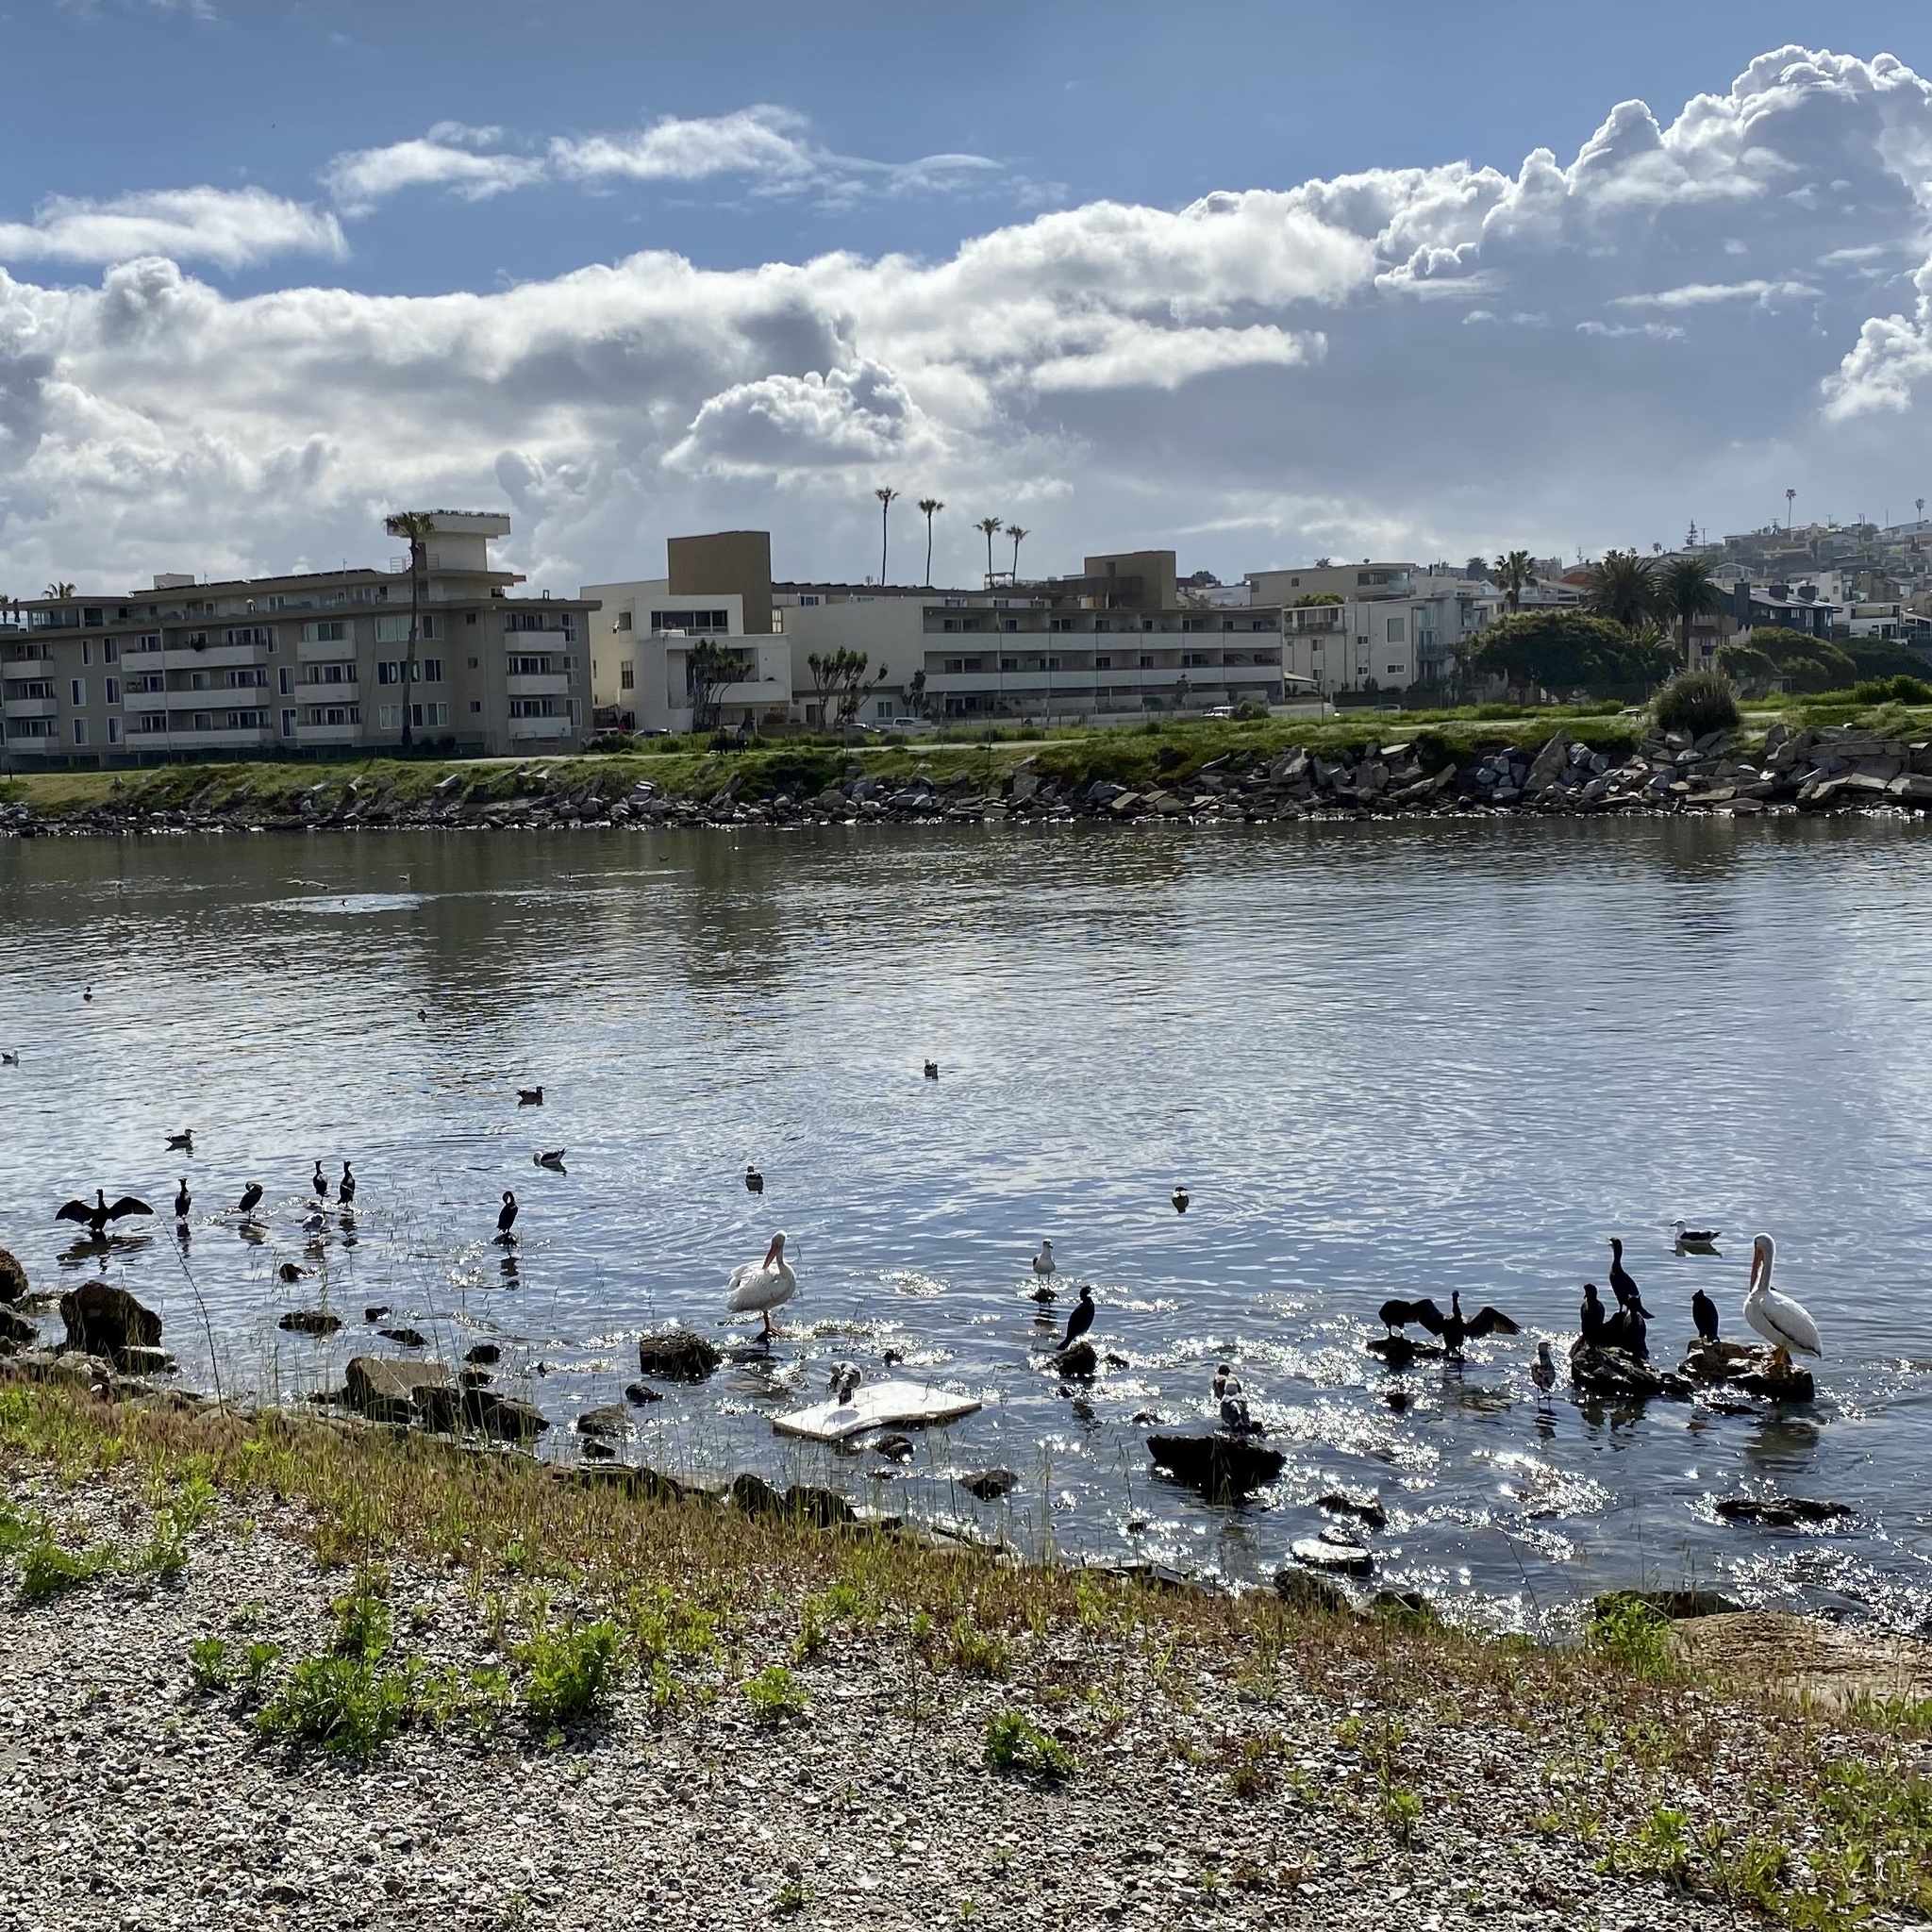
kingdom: Animalia
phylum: Chordata
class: Aves
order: Pelecaniformes
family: Pelecanidae
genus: Pelecanus
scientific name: Pelecanus erythrorhynchos
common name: American white pelican
